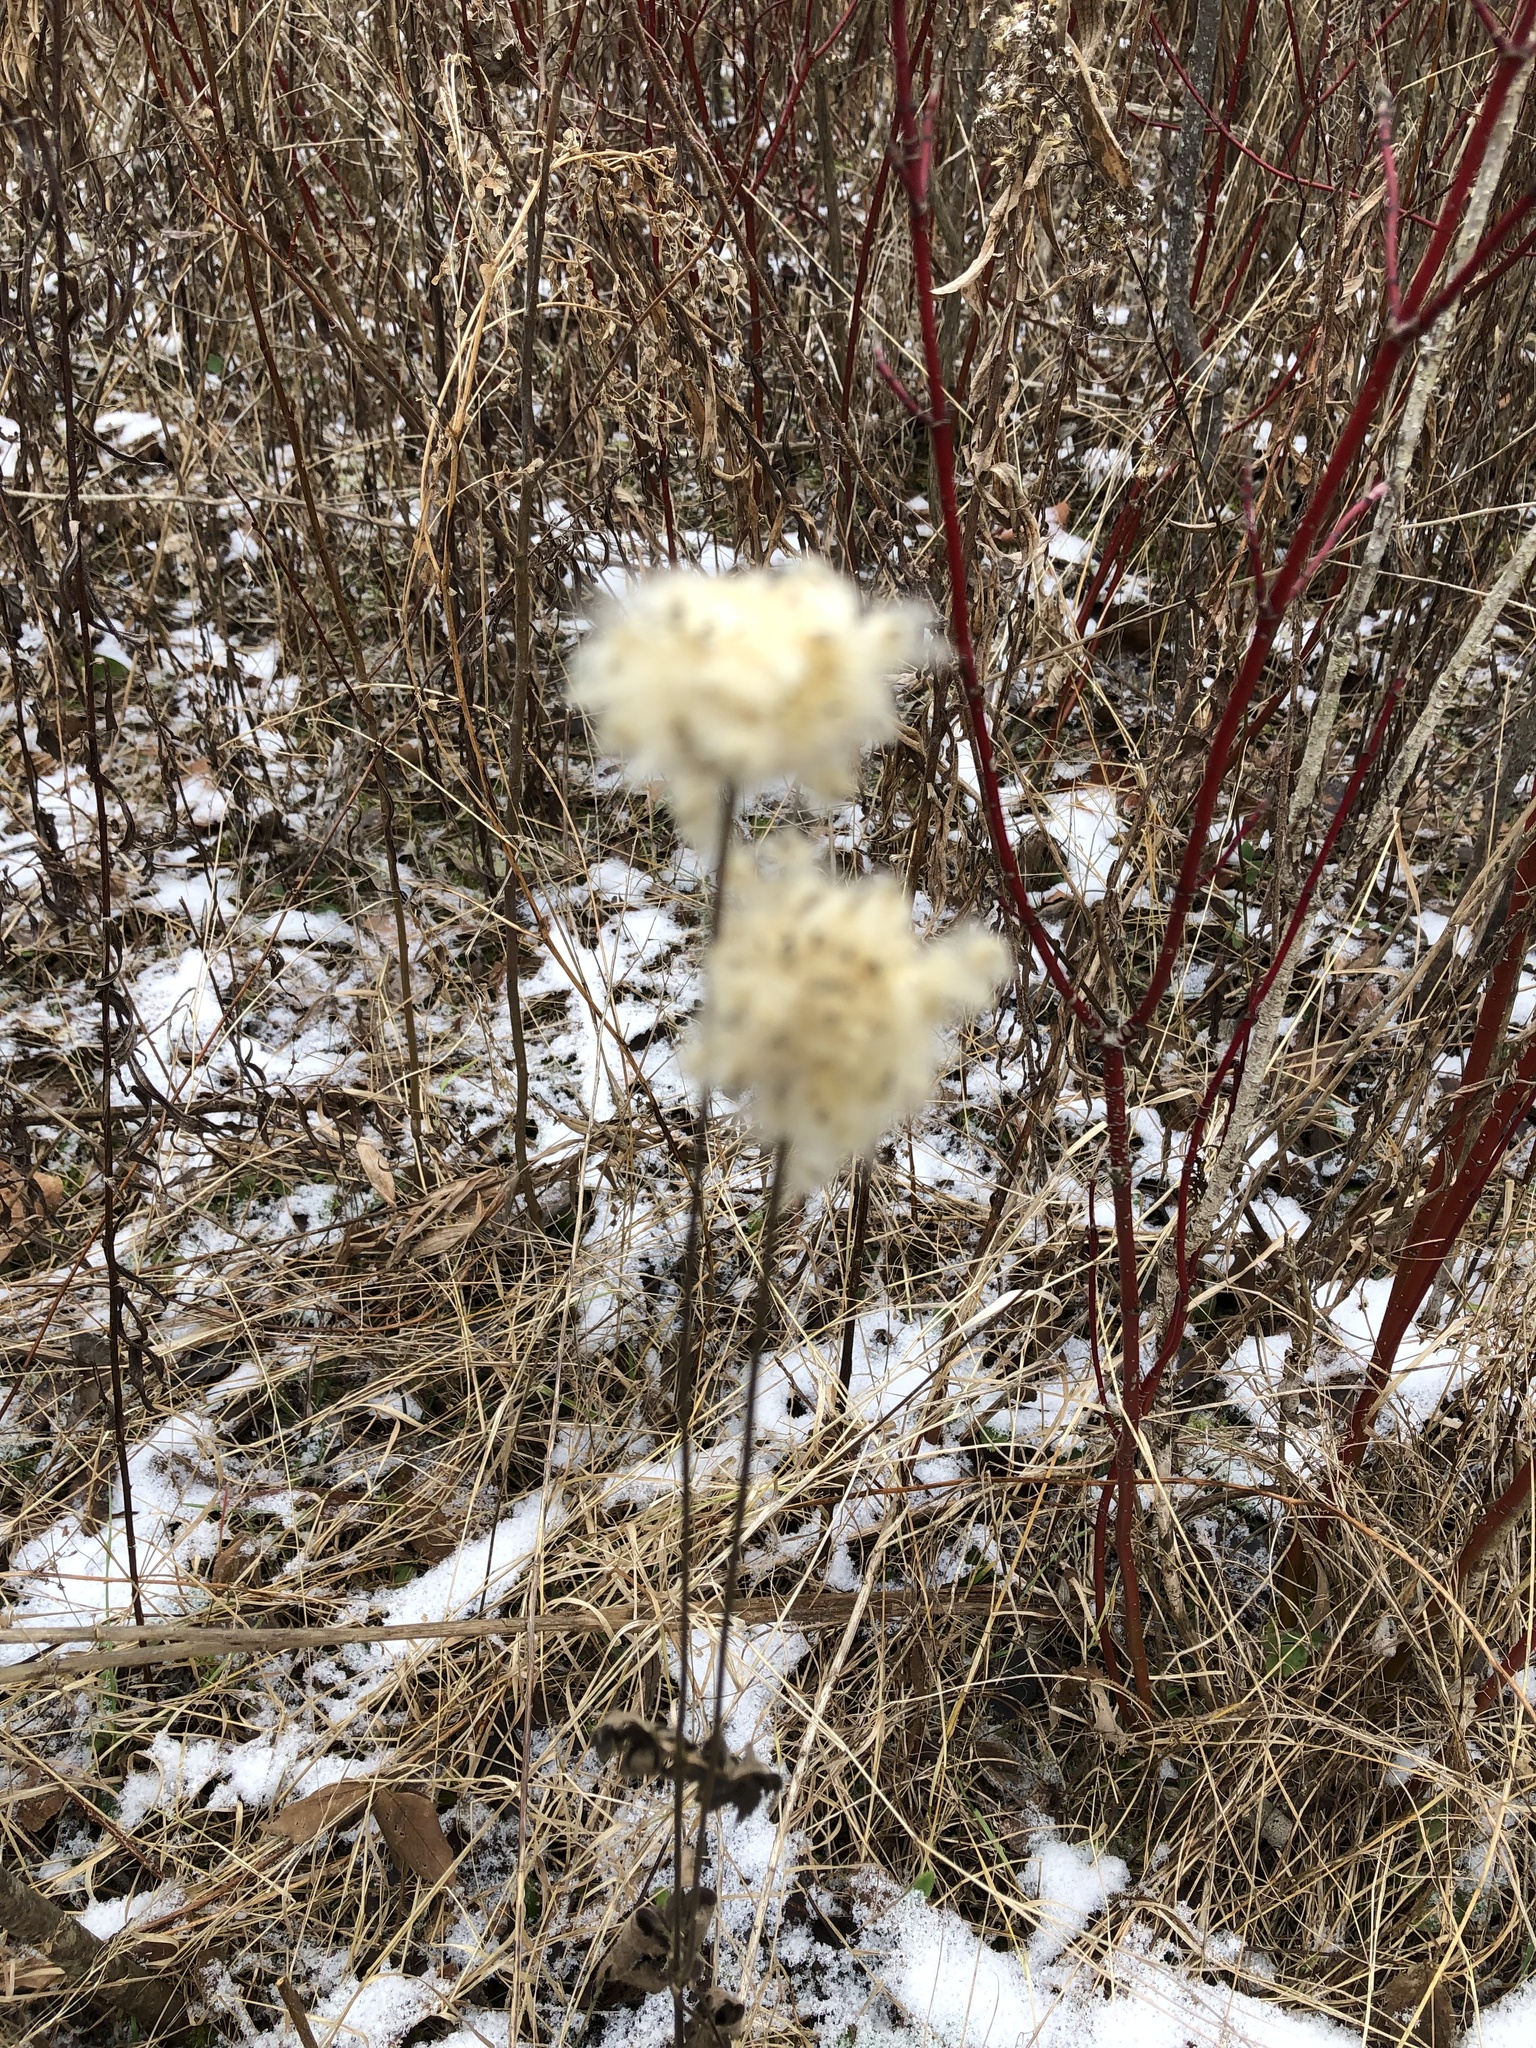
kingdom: Plantae
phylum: Tracheophyta
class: Magnoliopsida
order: Ranunculales
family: Ranunculaceae
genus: Anemone
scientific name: Anemone virginiana
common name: Tall anemone
